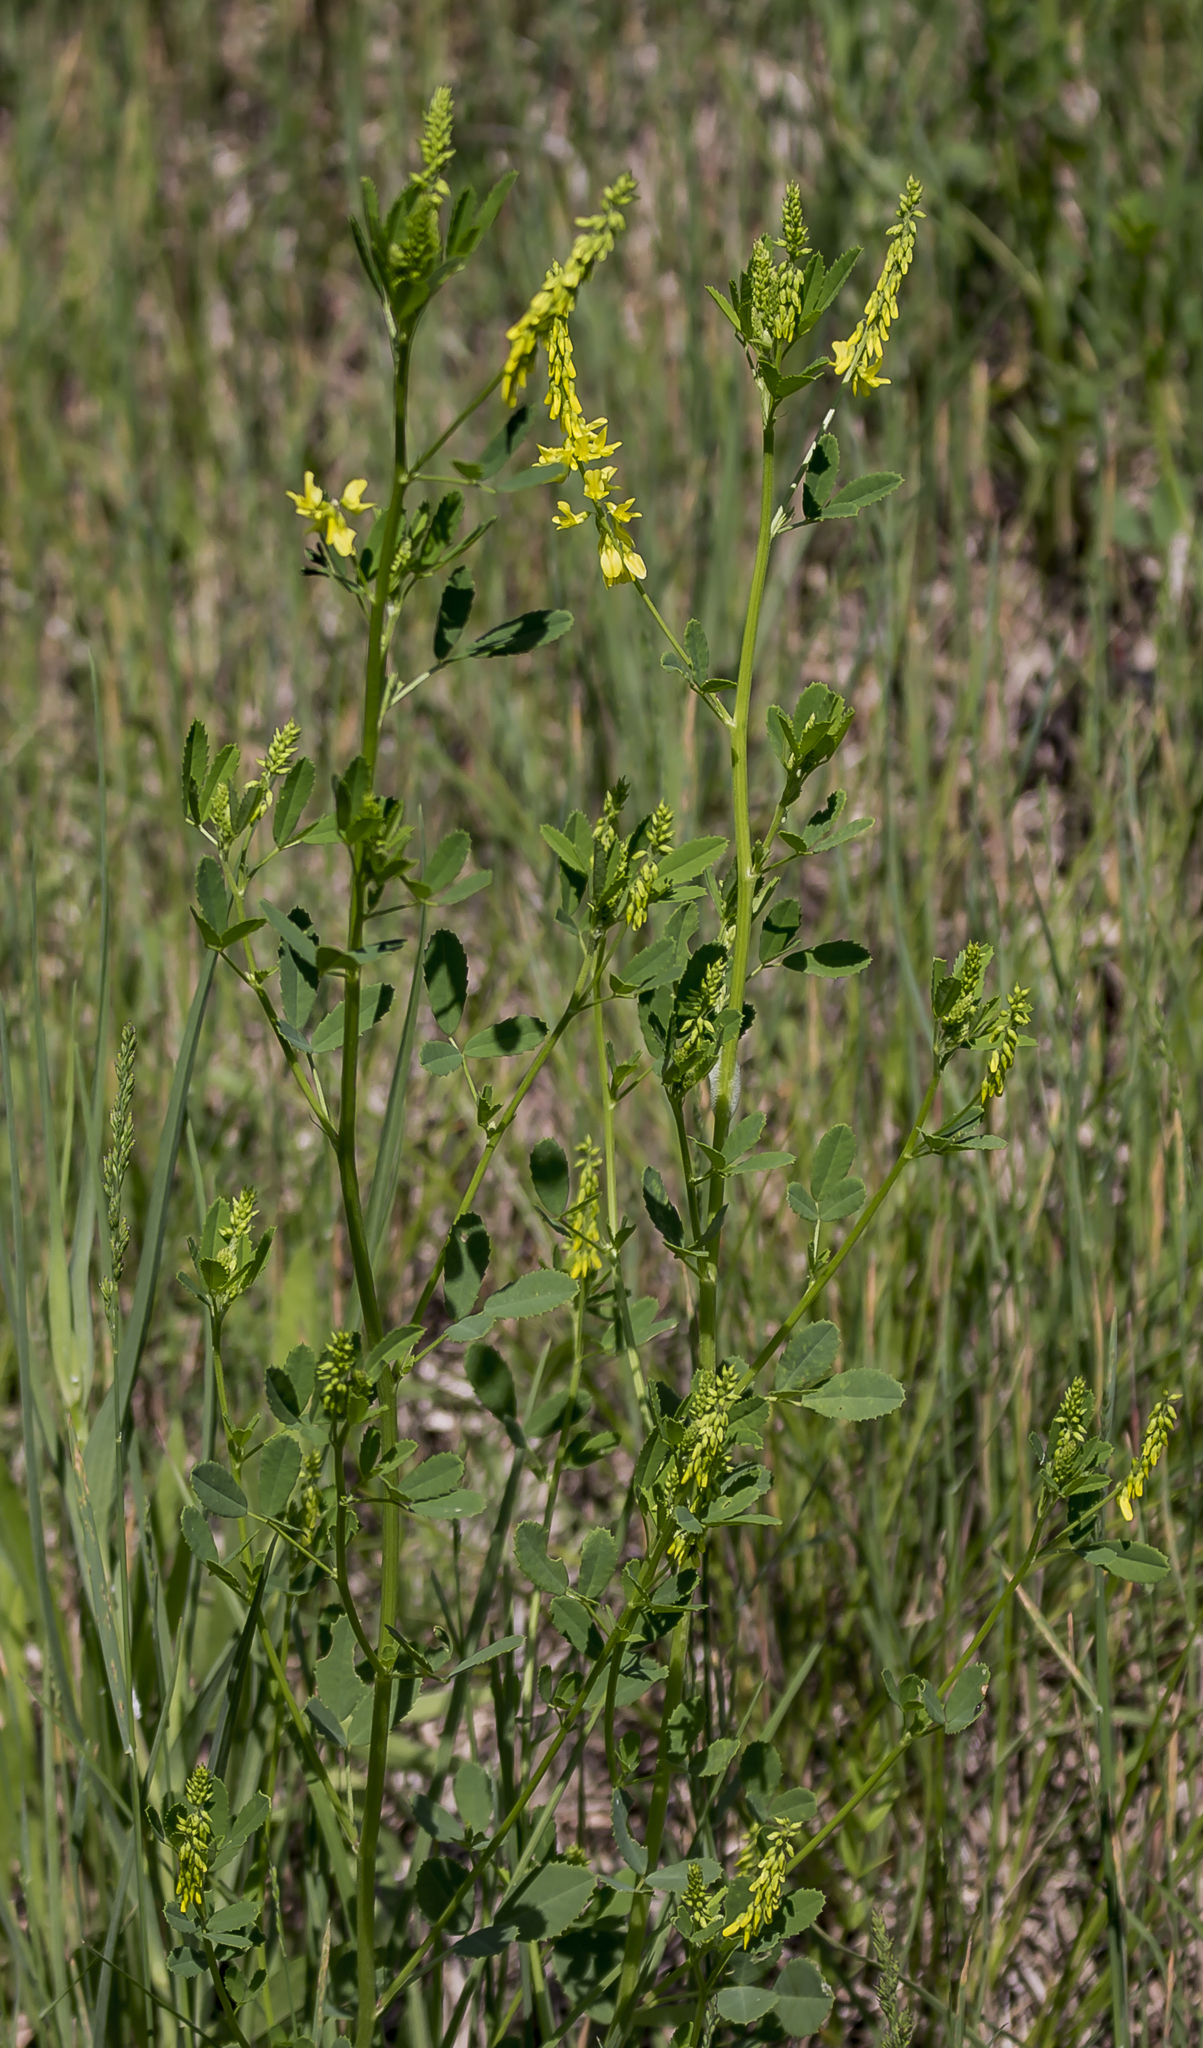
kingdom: Plantae
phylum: Tracheophyta
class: Magnoliopsida
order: Fabales
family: Fabaceae
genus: Melilotus
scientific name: Melilotus officinalis
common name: Sweetclover
